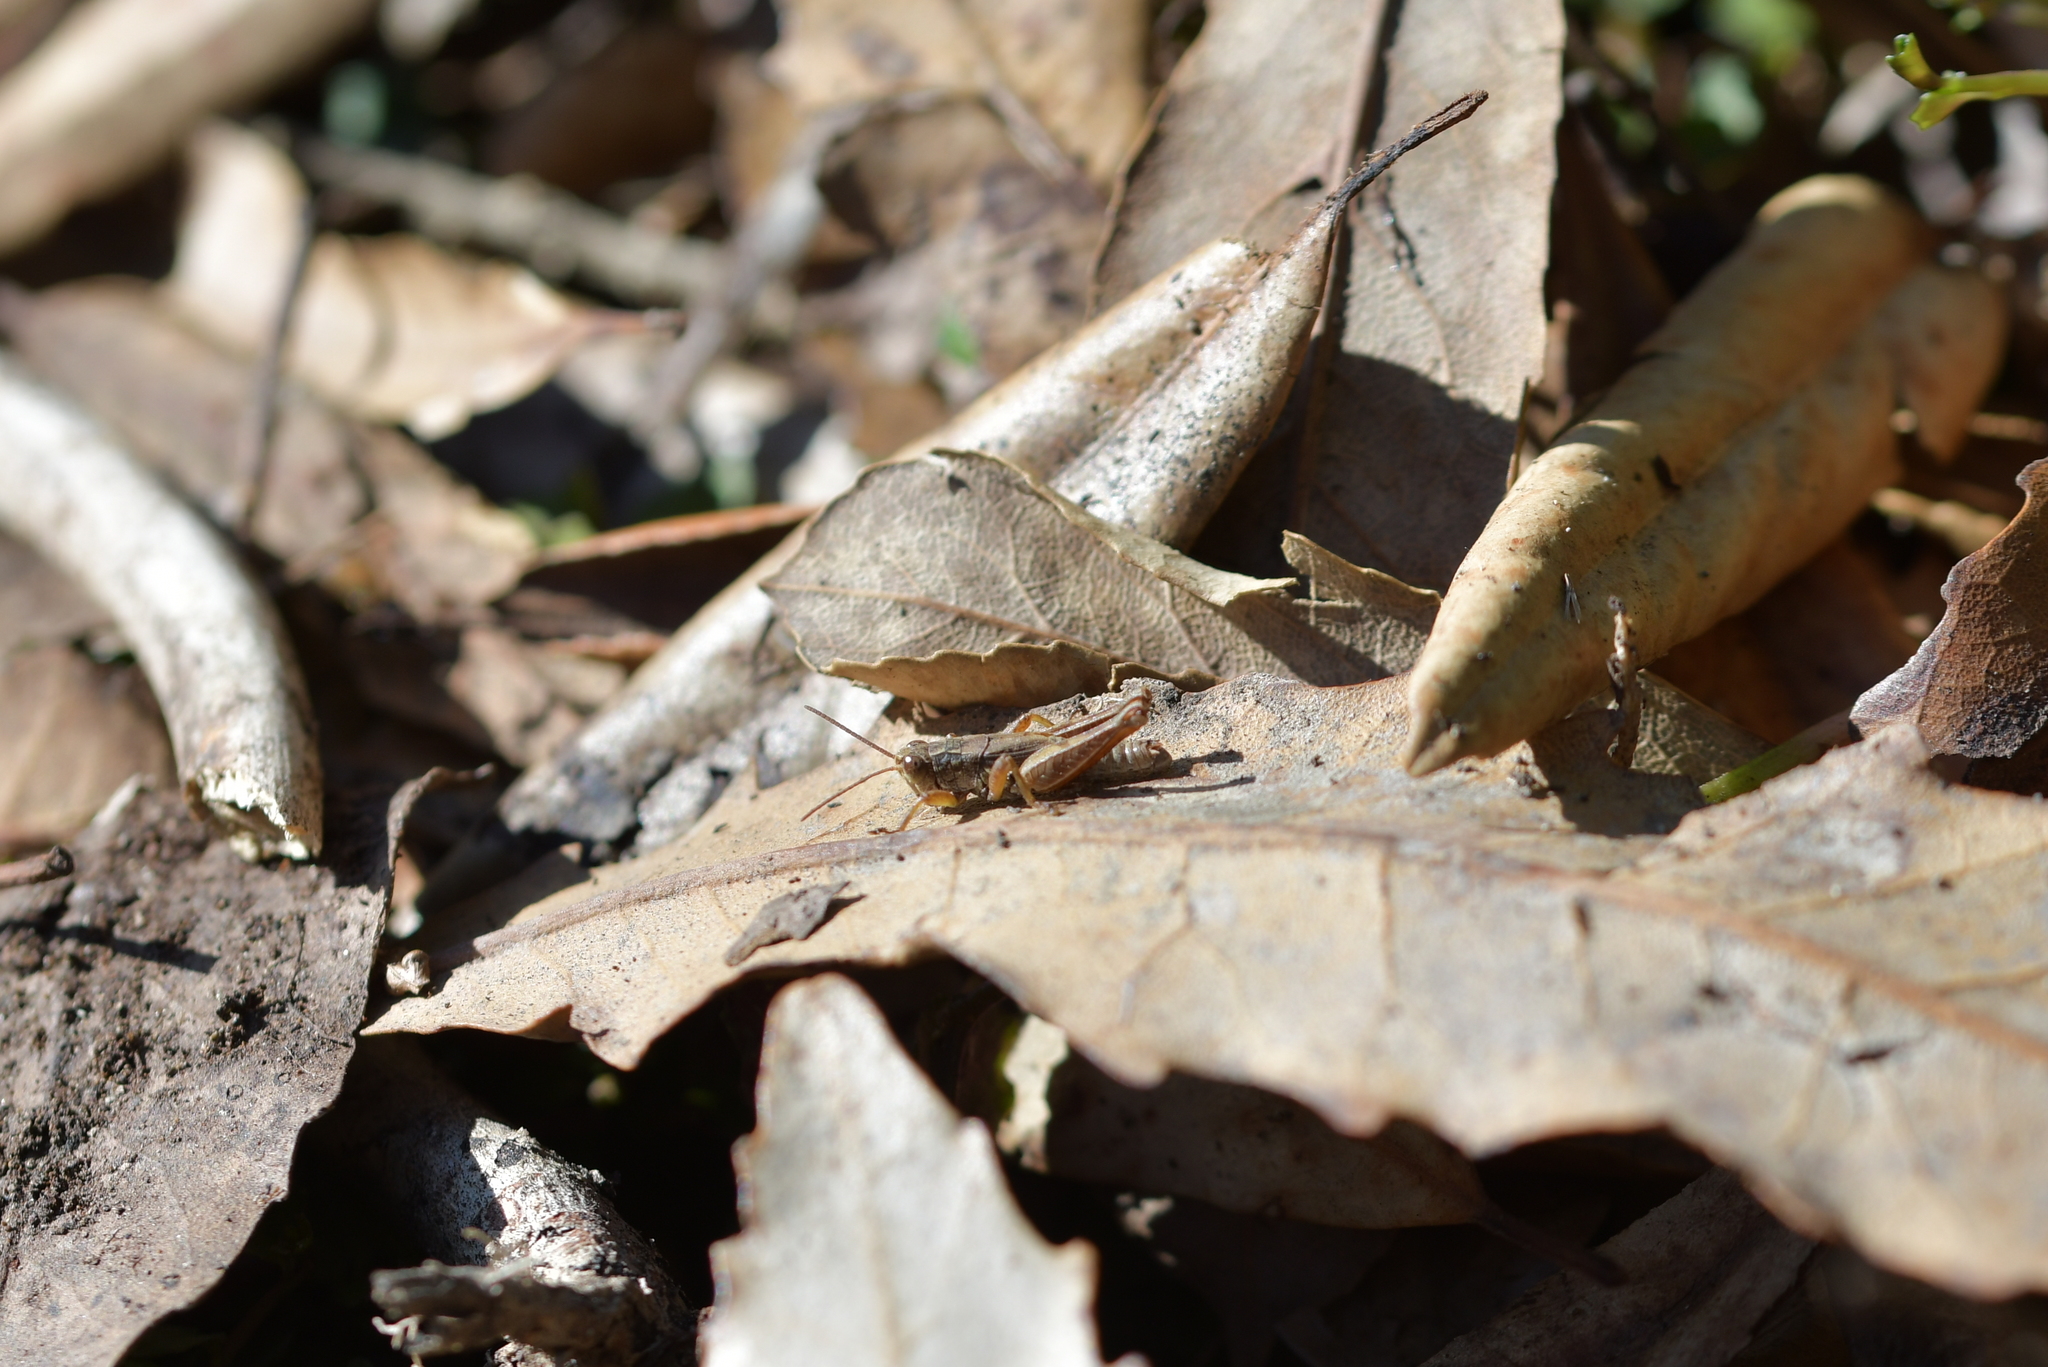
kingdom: Animalia
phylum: Arthropoda
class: Insecta
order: Orthoptera
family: Acrididae
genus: Phaulacridium
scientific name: Phaulacridium marginale
